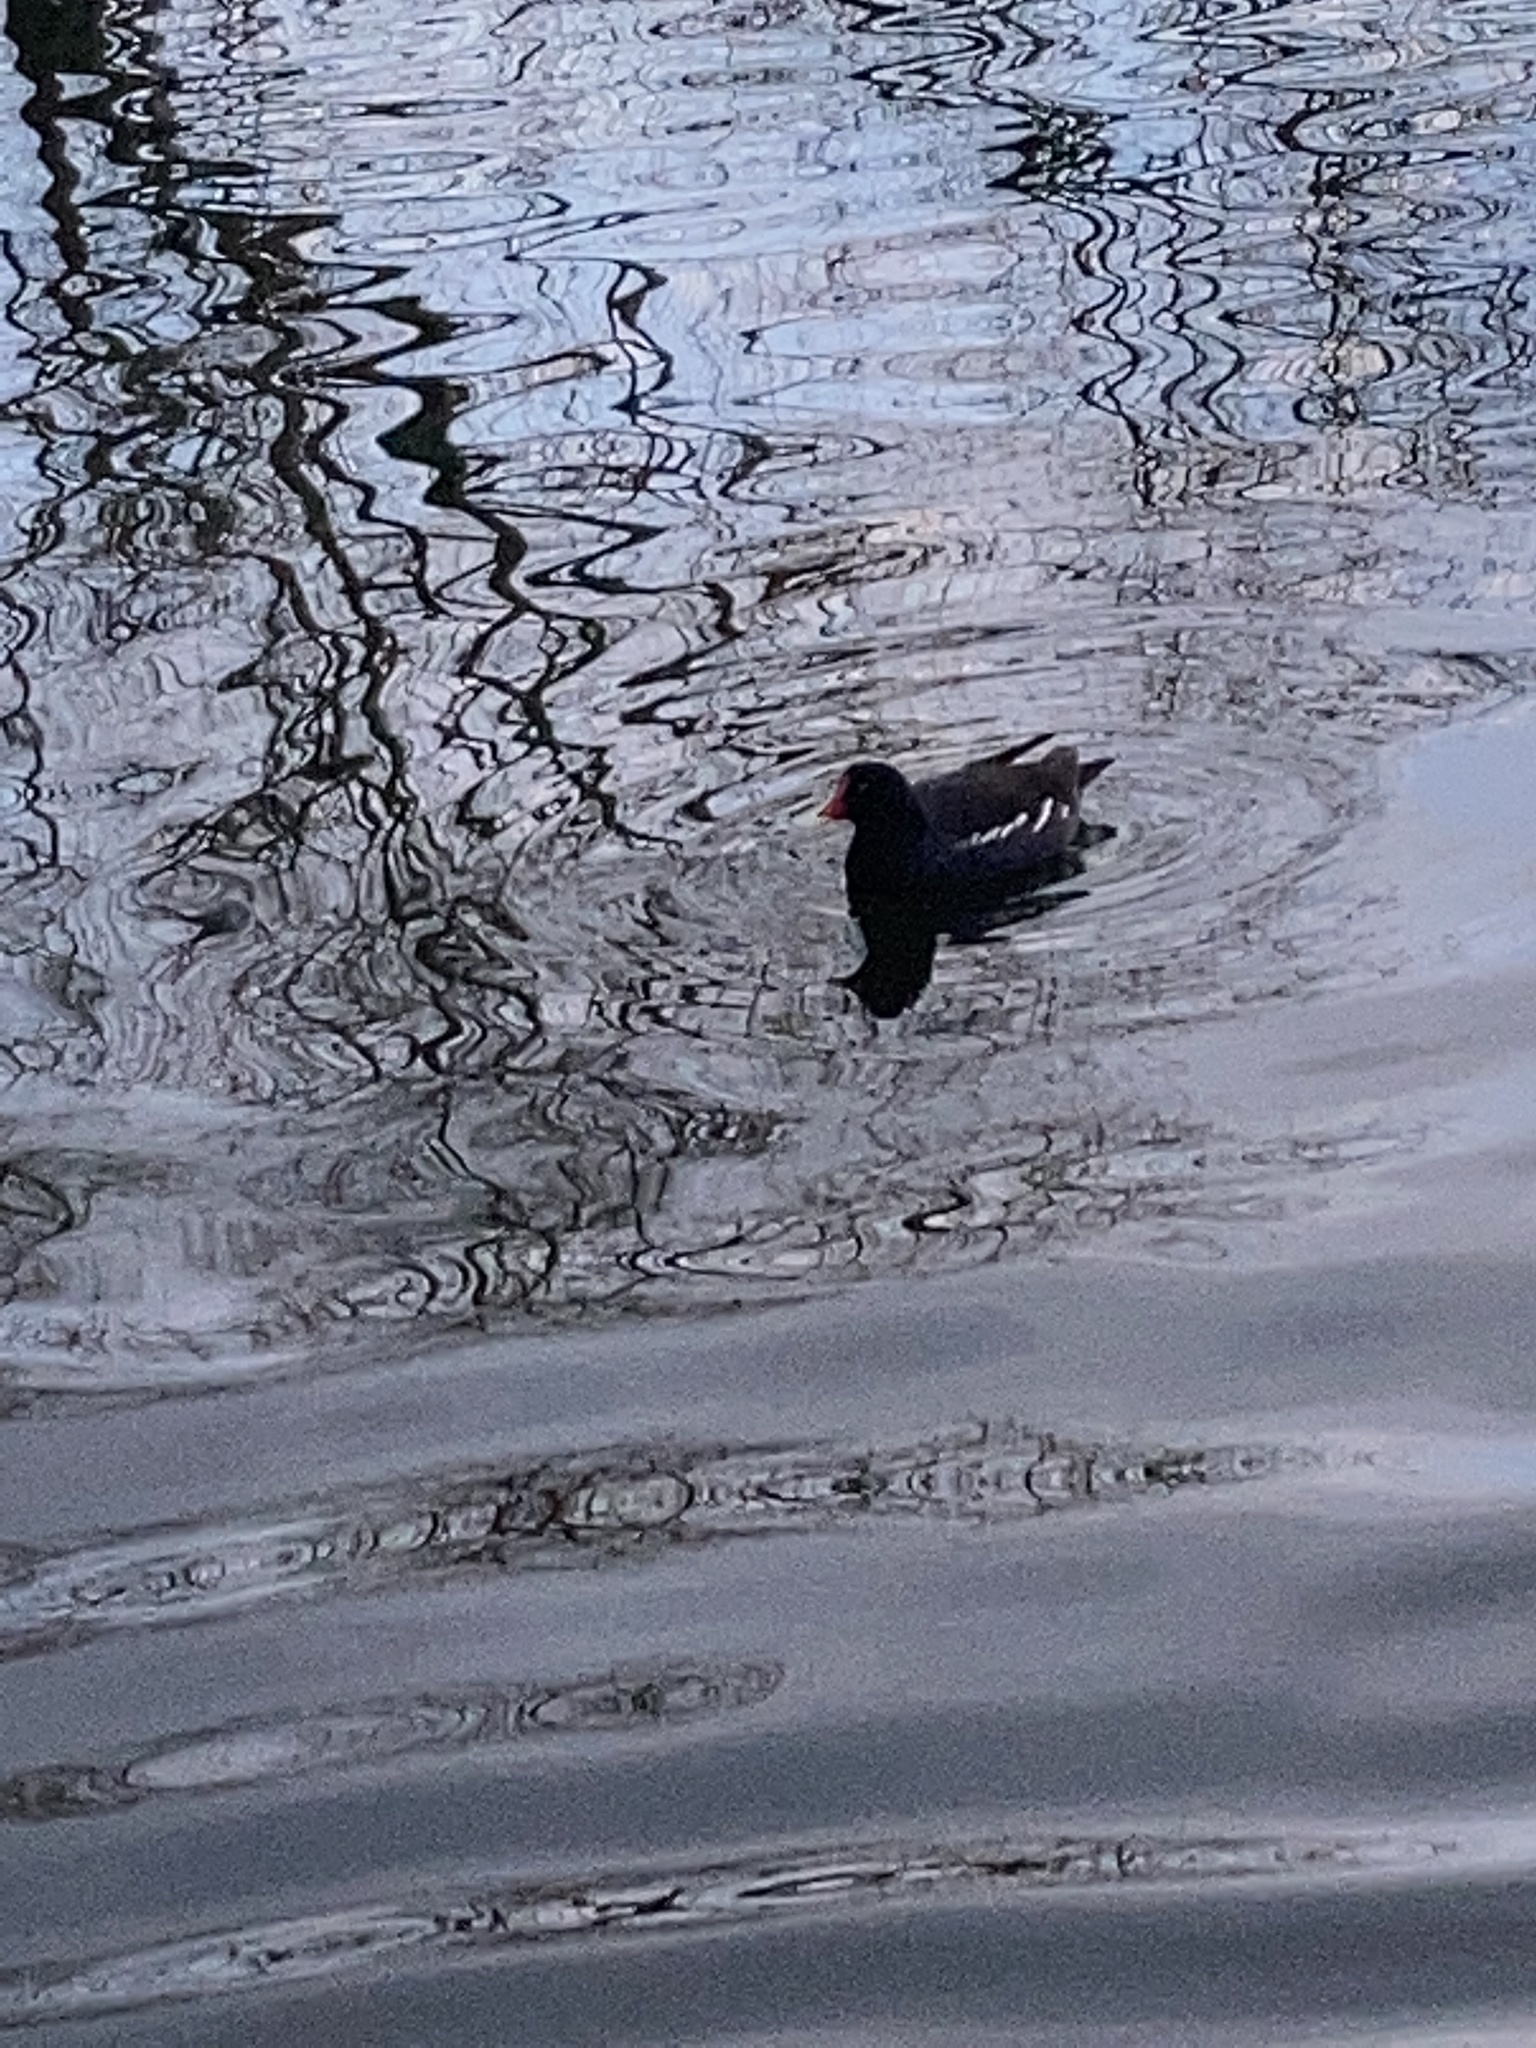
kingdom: Animalia
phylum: Chordata
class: Aves
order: Gruiformes
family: Rallidae
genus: Gallinula
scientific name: Gallinula chloropus
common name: Common moorhen
